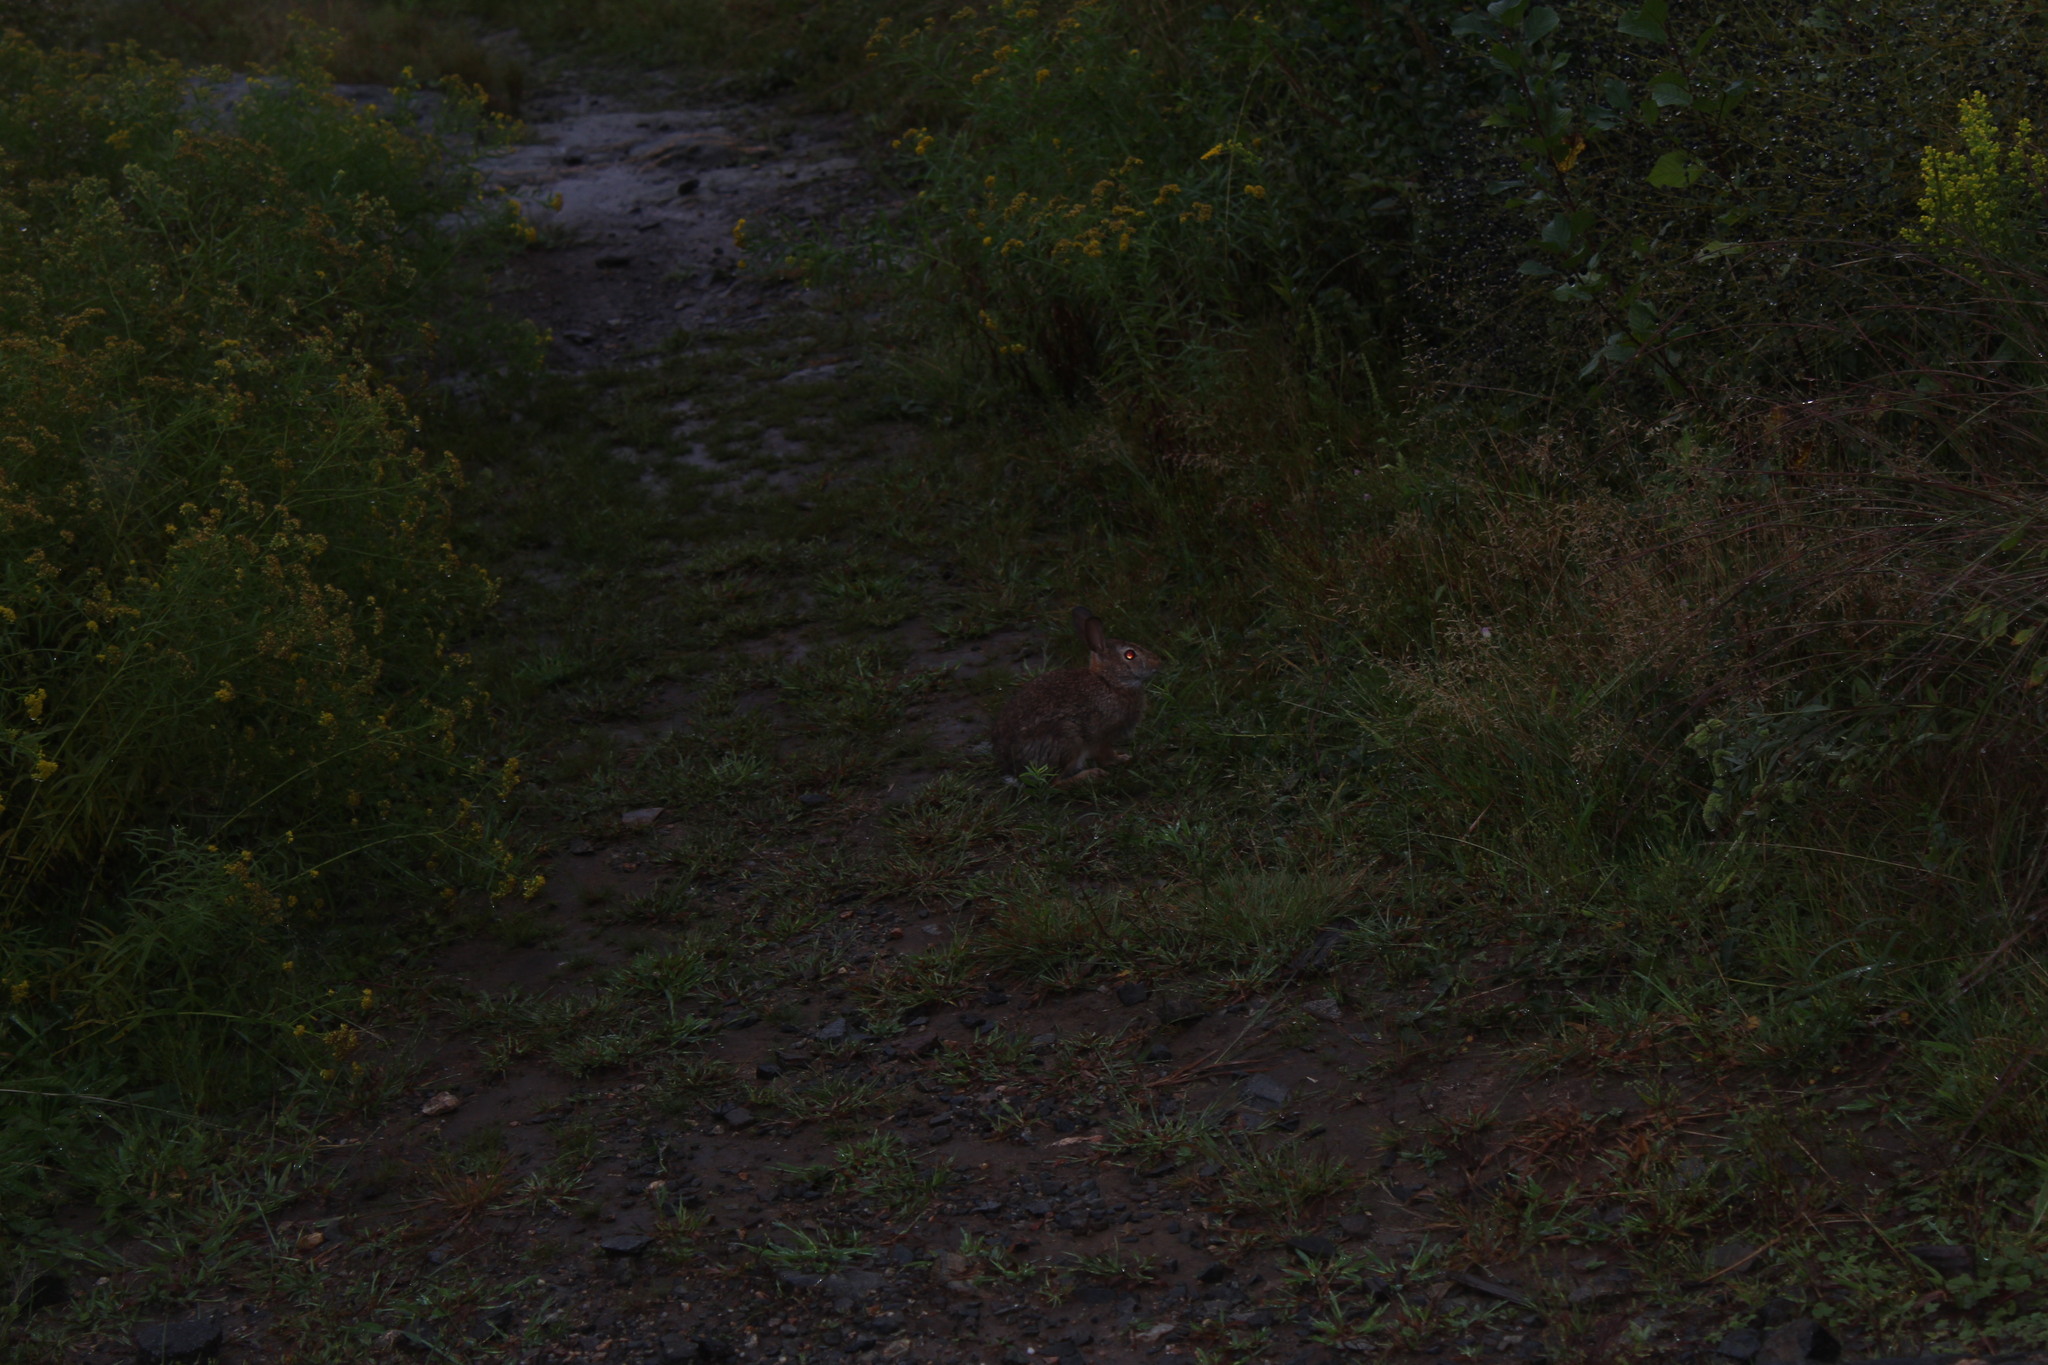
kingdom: Animalia
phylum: Chordata
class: Mammalia
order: Lagomorpha
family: Leporidae
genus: Sylvilagus
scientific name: Sylvilagus floridanus
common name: Eastern cottontail
